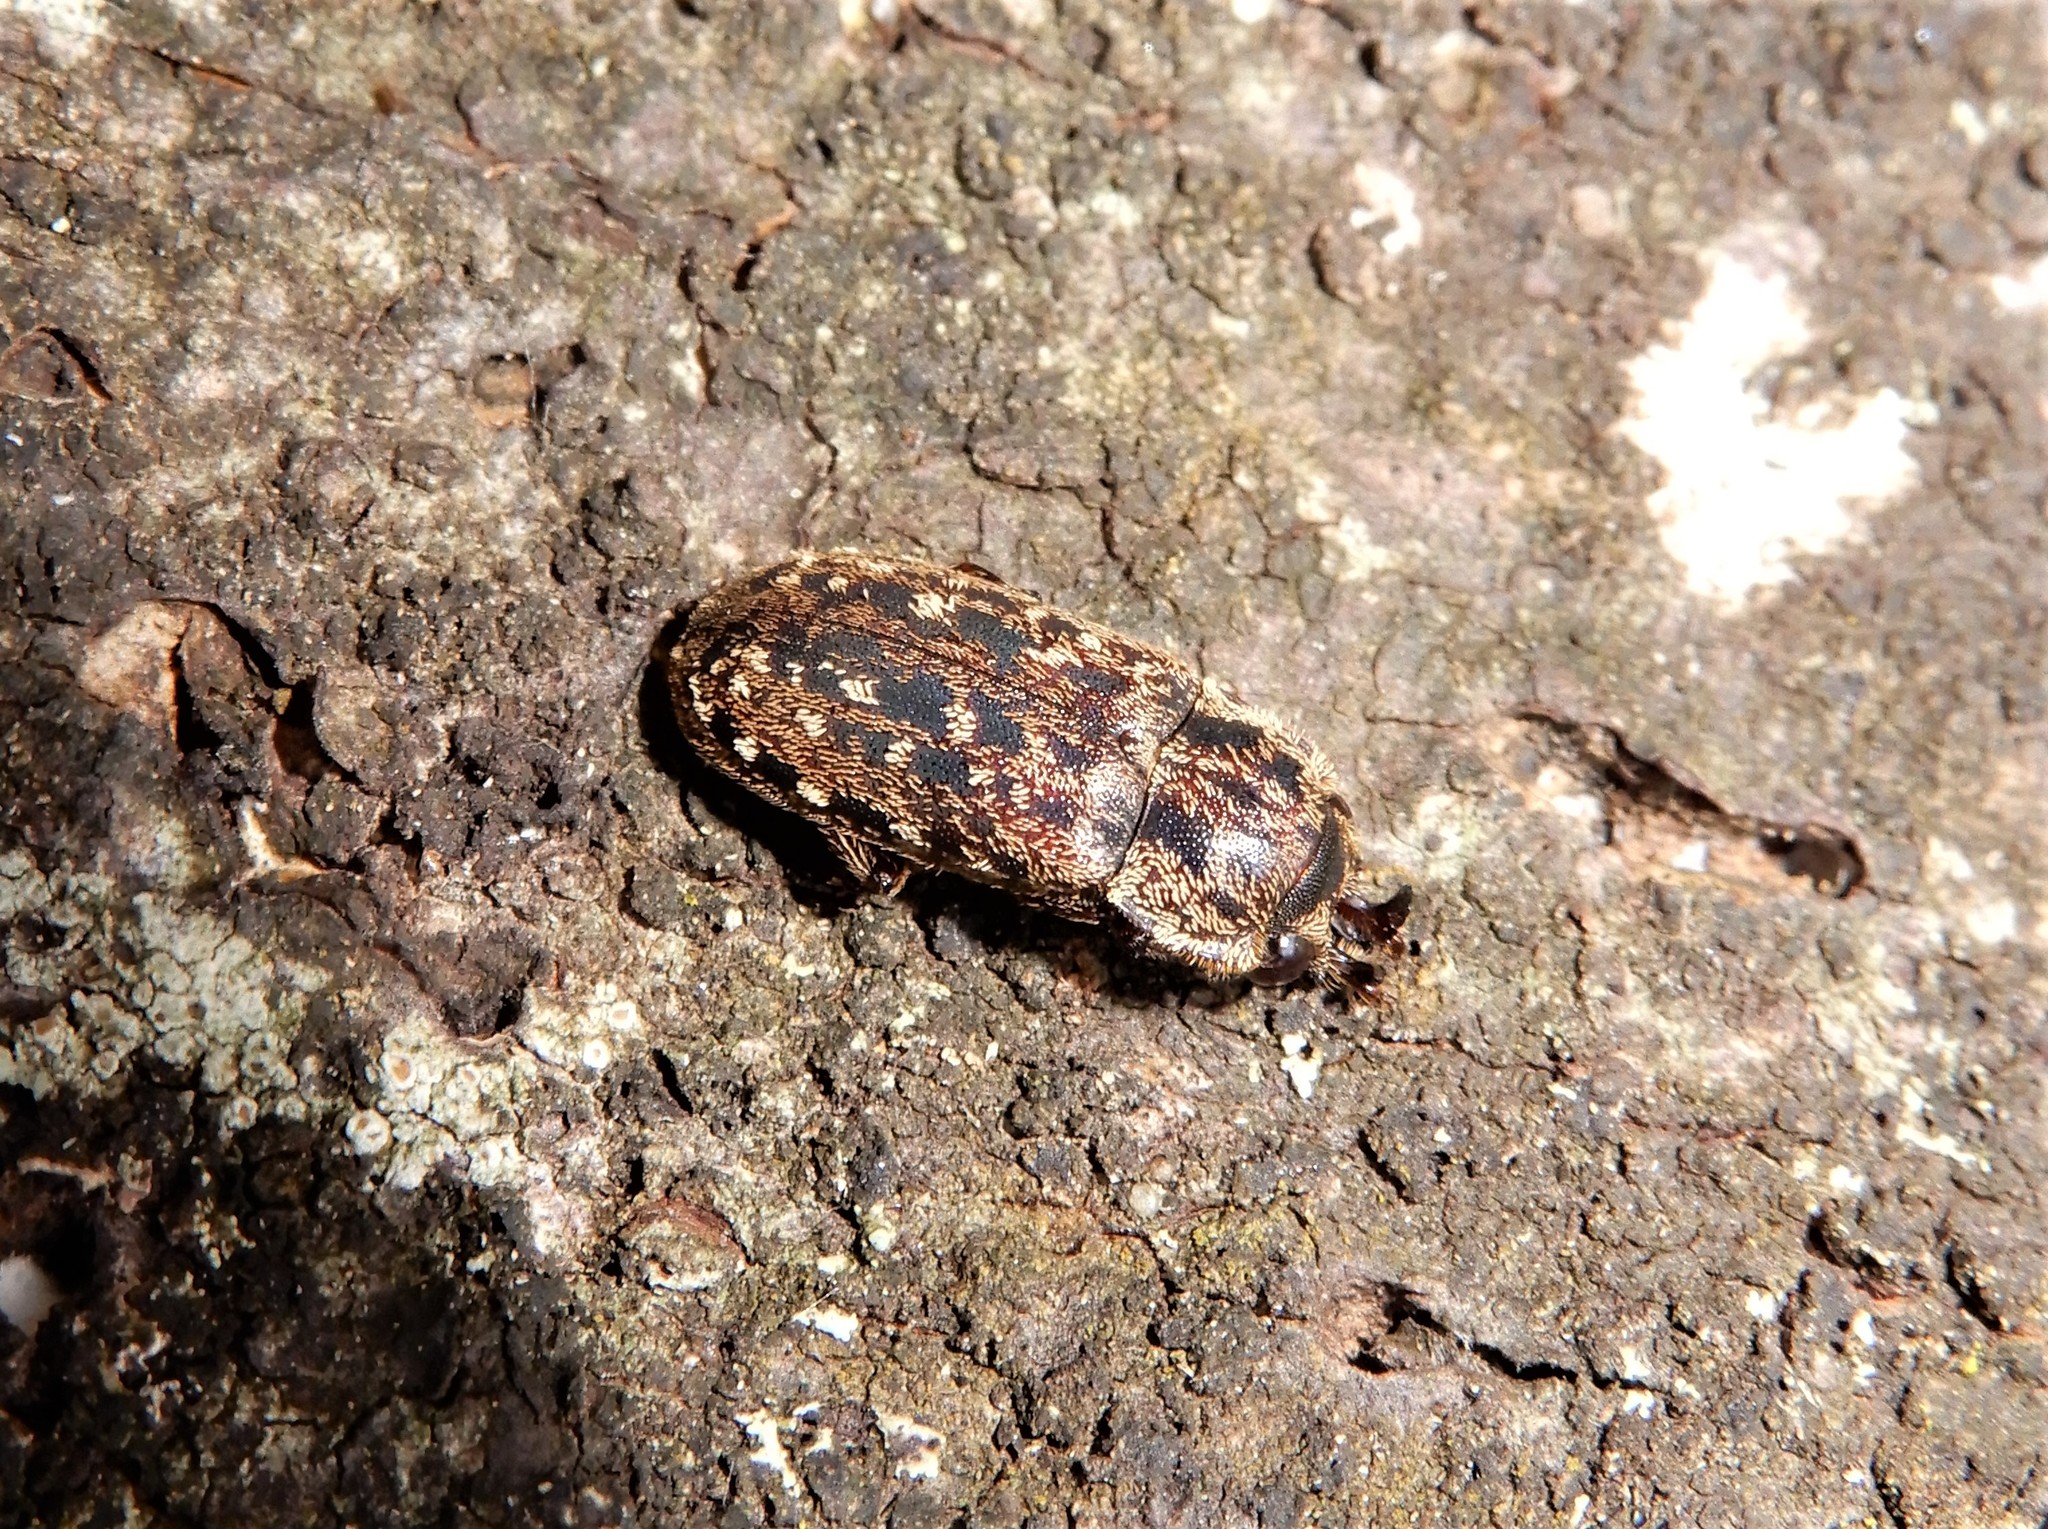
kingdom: Animalia
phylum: Arthropoda
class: Insecta
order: Coleoptera
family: Lucanidae
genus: Mitophyllus
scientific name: Mitophyllus irroratus
